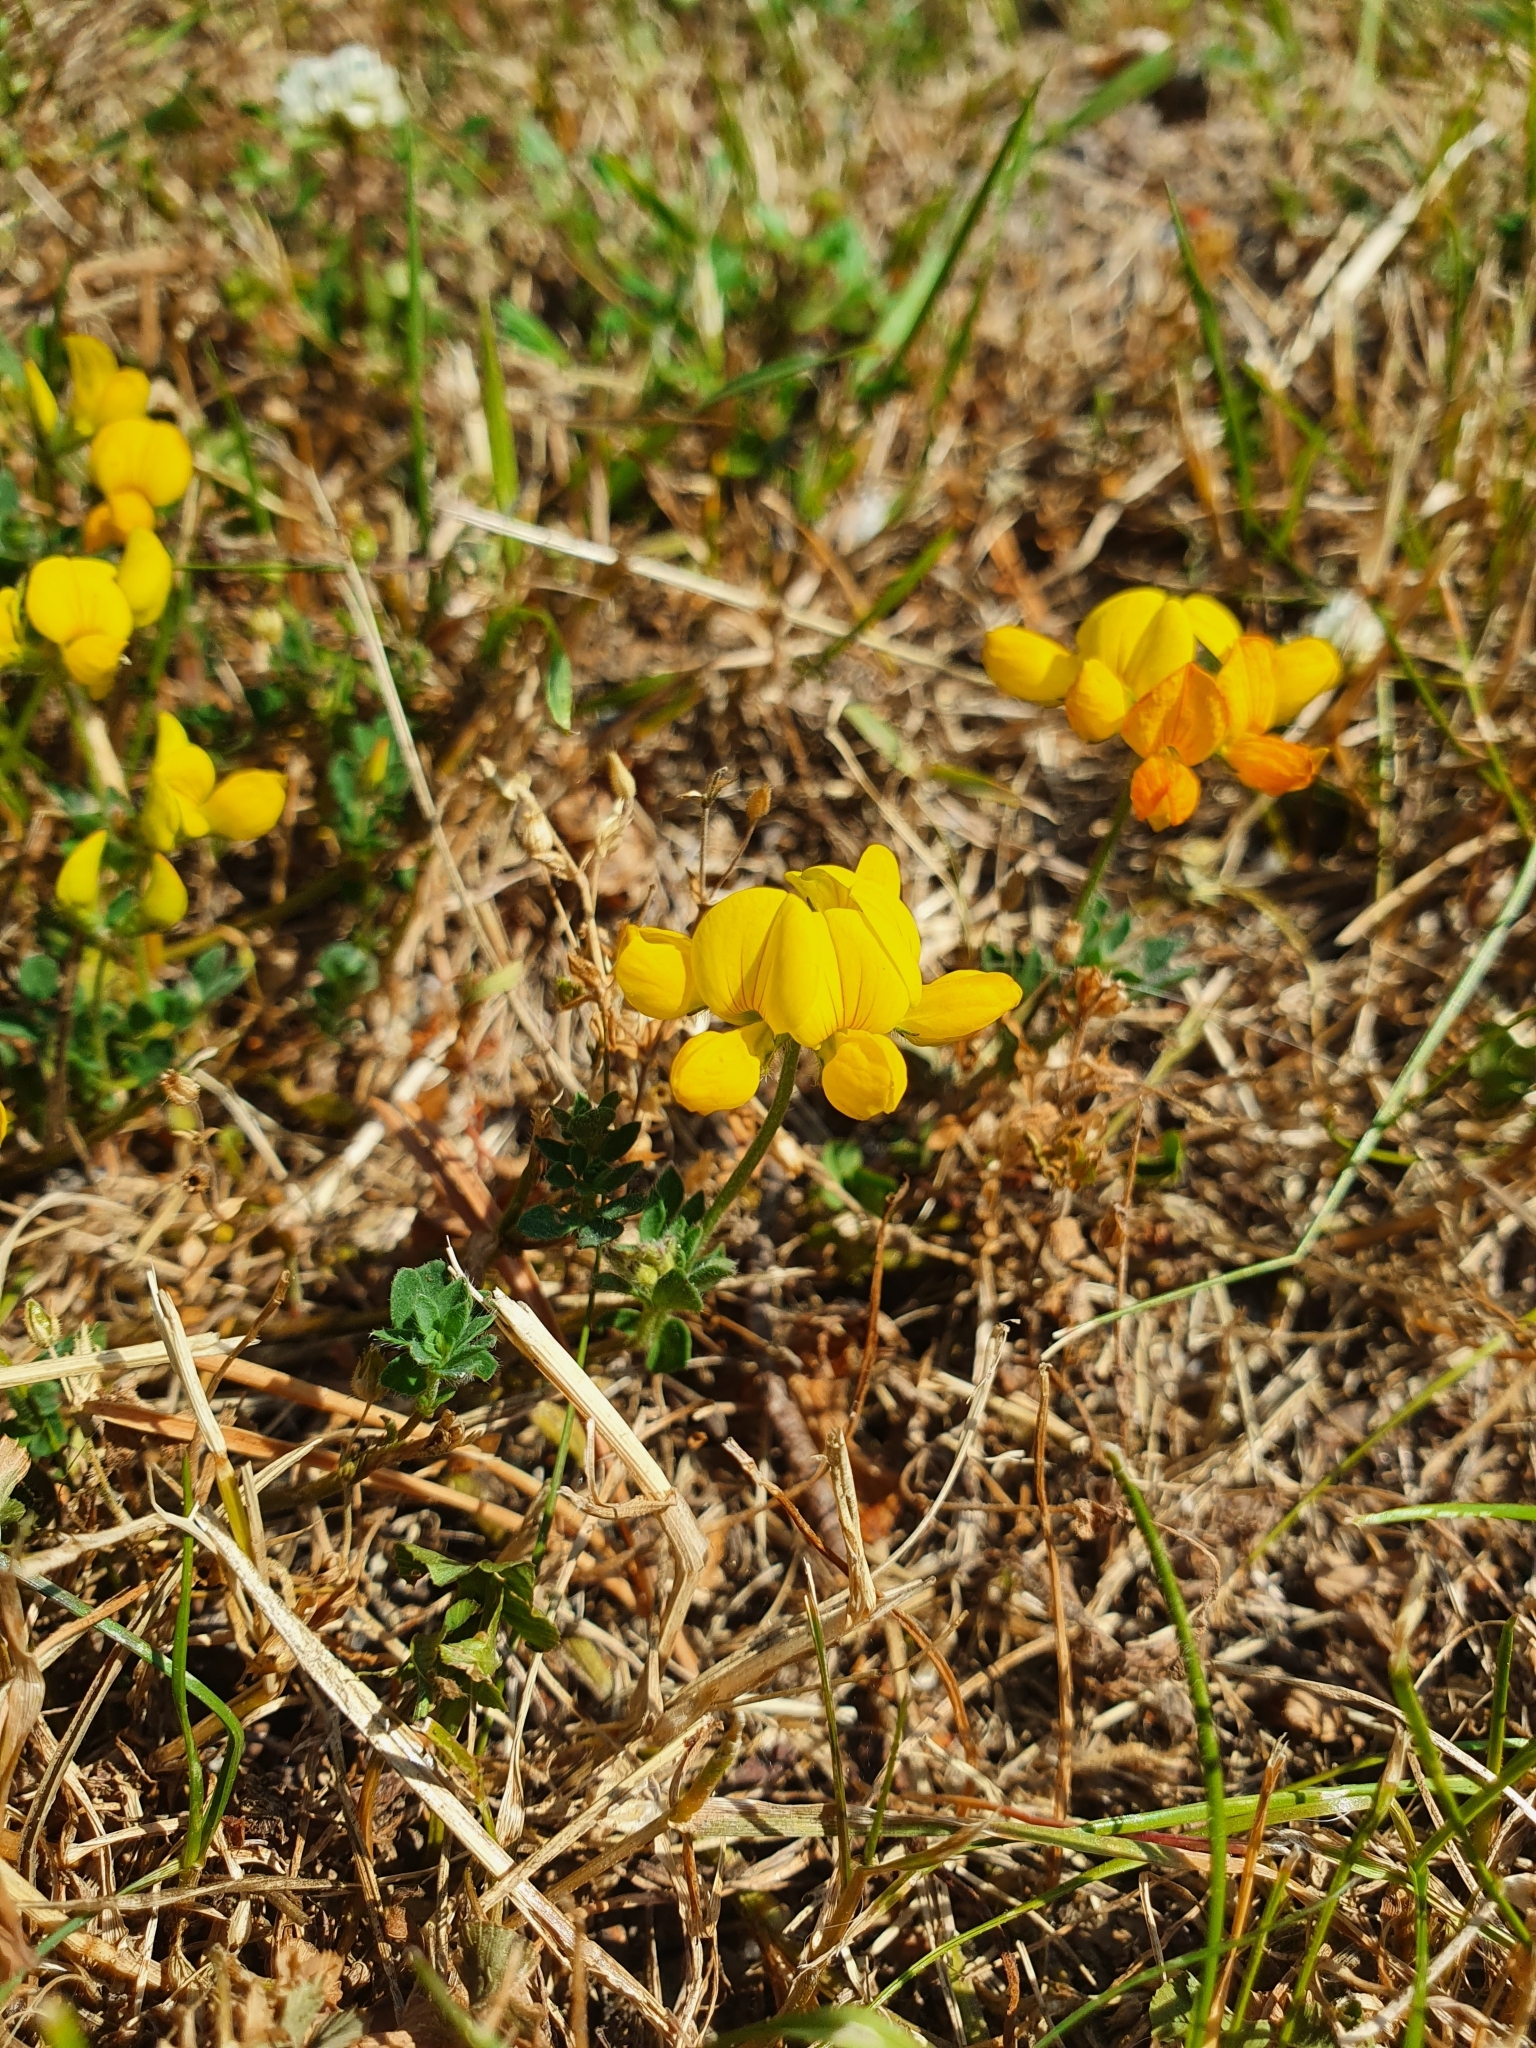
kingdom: Plantae
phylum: Tracheophyta
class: Magnoliopsida
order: Fabales
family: Fabaceae
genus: Lotus
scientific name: Lotus corniculatus
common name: Common bird's-foot-trefoil
